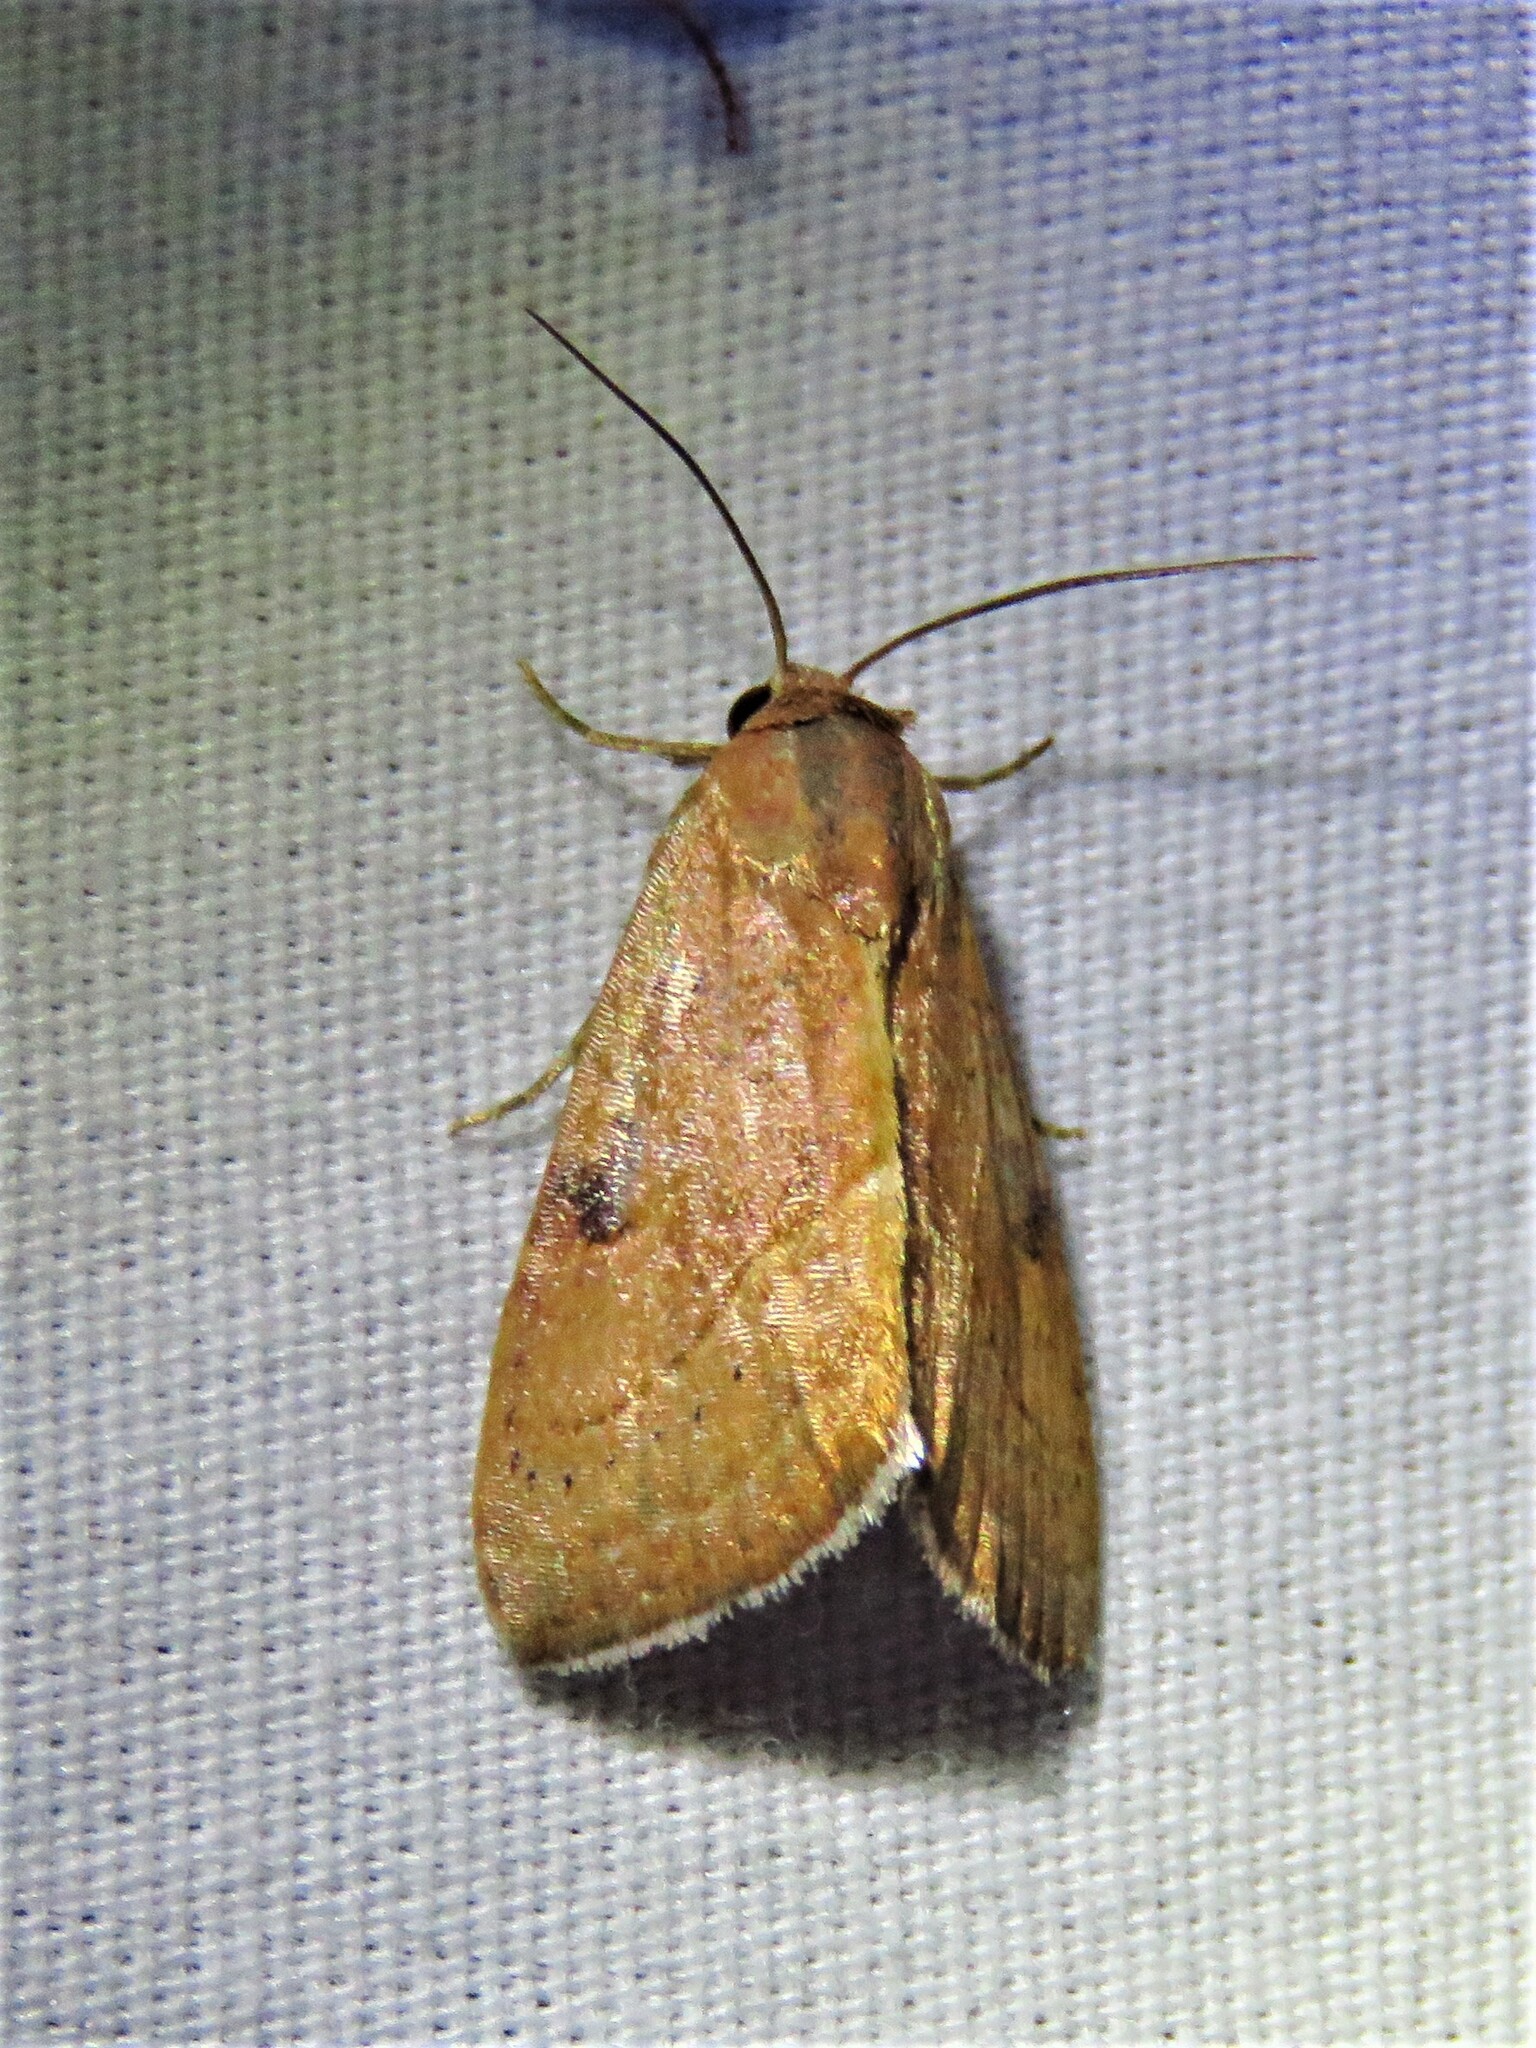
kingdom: Animalia
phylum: Arthropoda
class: Insecta
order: Lepidoptera
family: Noctuidae
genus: Galgula
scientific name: Galgula partita
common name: Wedgeling
